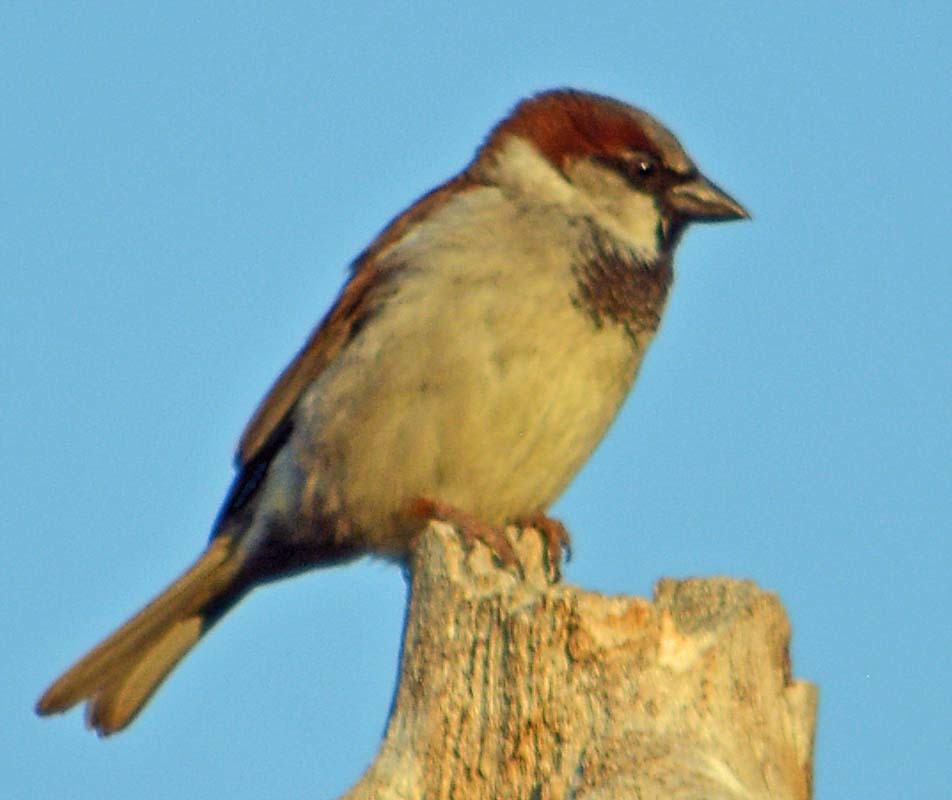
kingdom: Animalia
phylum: Chordata
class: Aves
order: Passeriformes
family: Passeridae
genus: Passer
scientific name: Passer domesticus
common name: House sparrow
